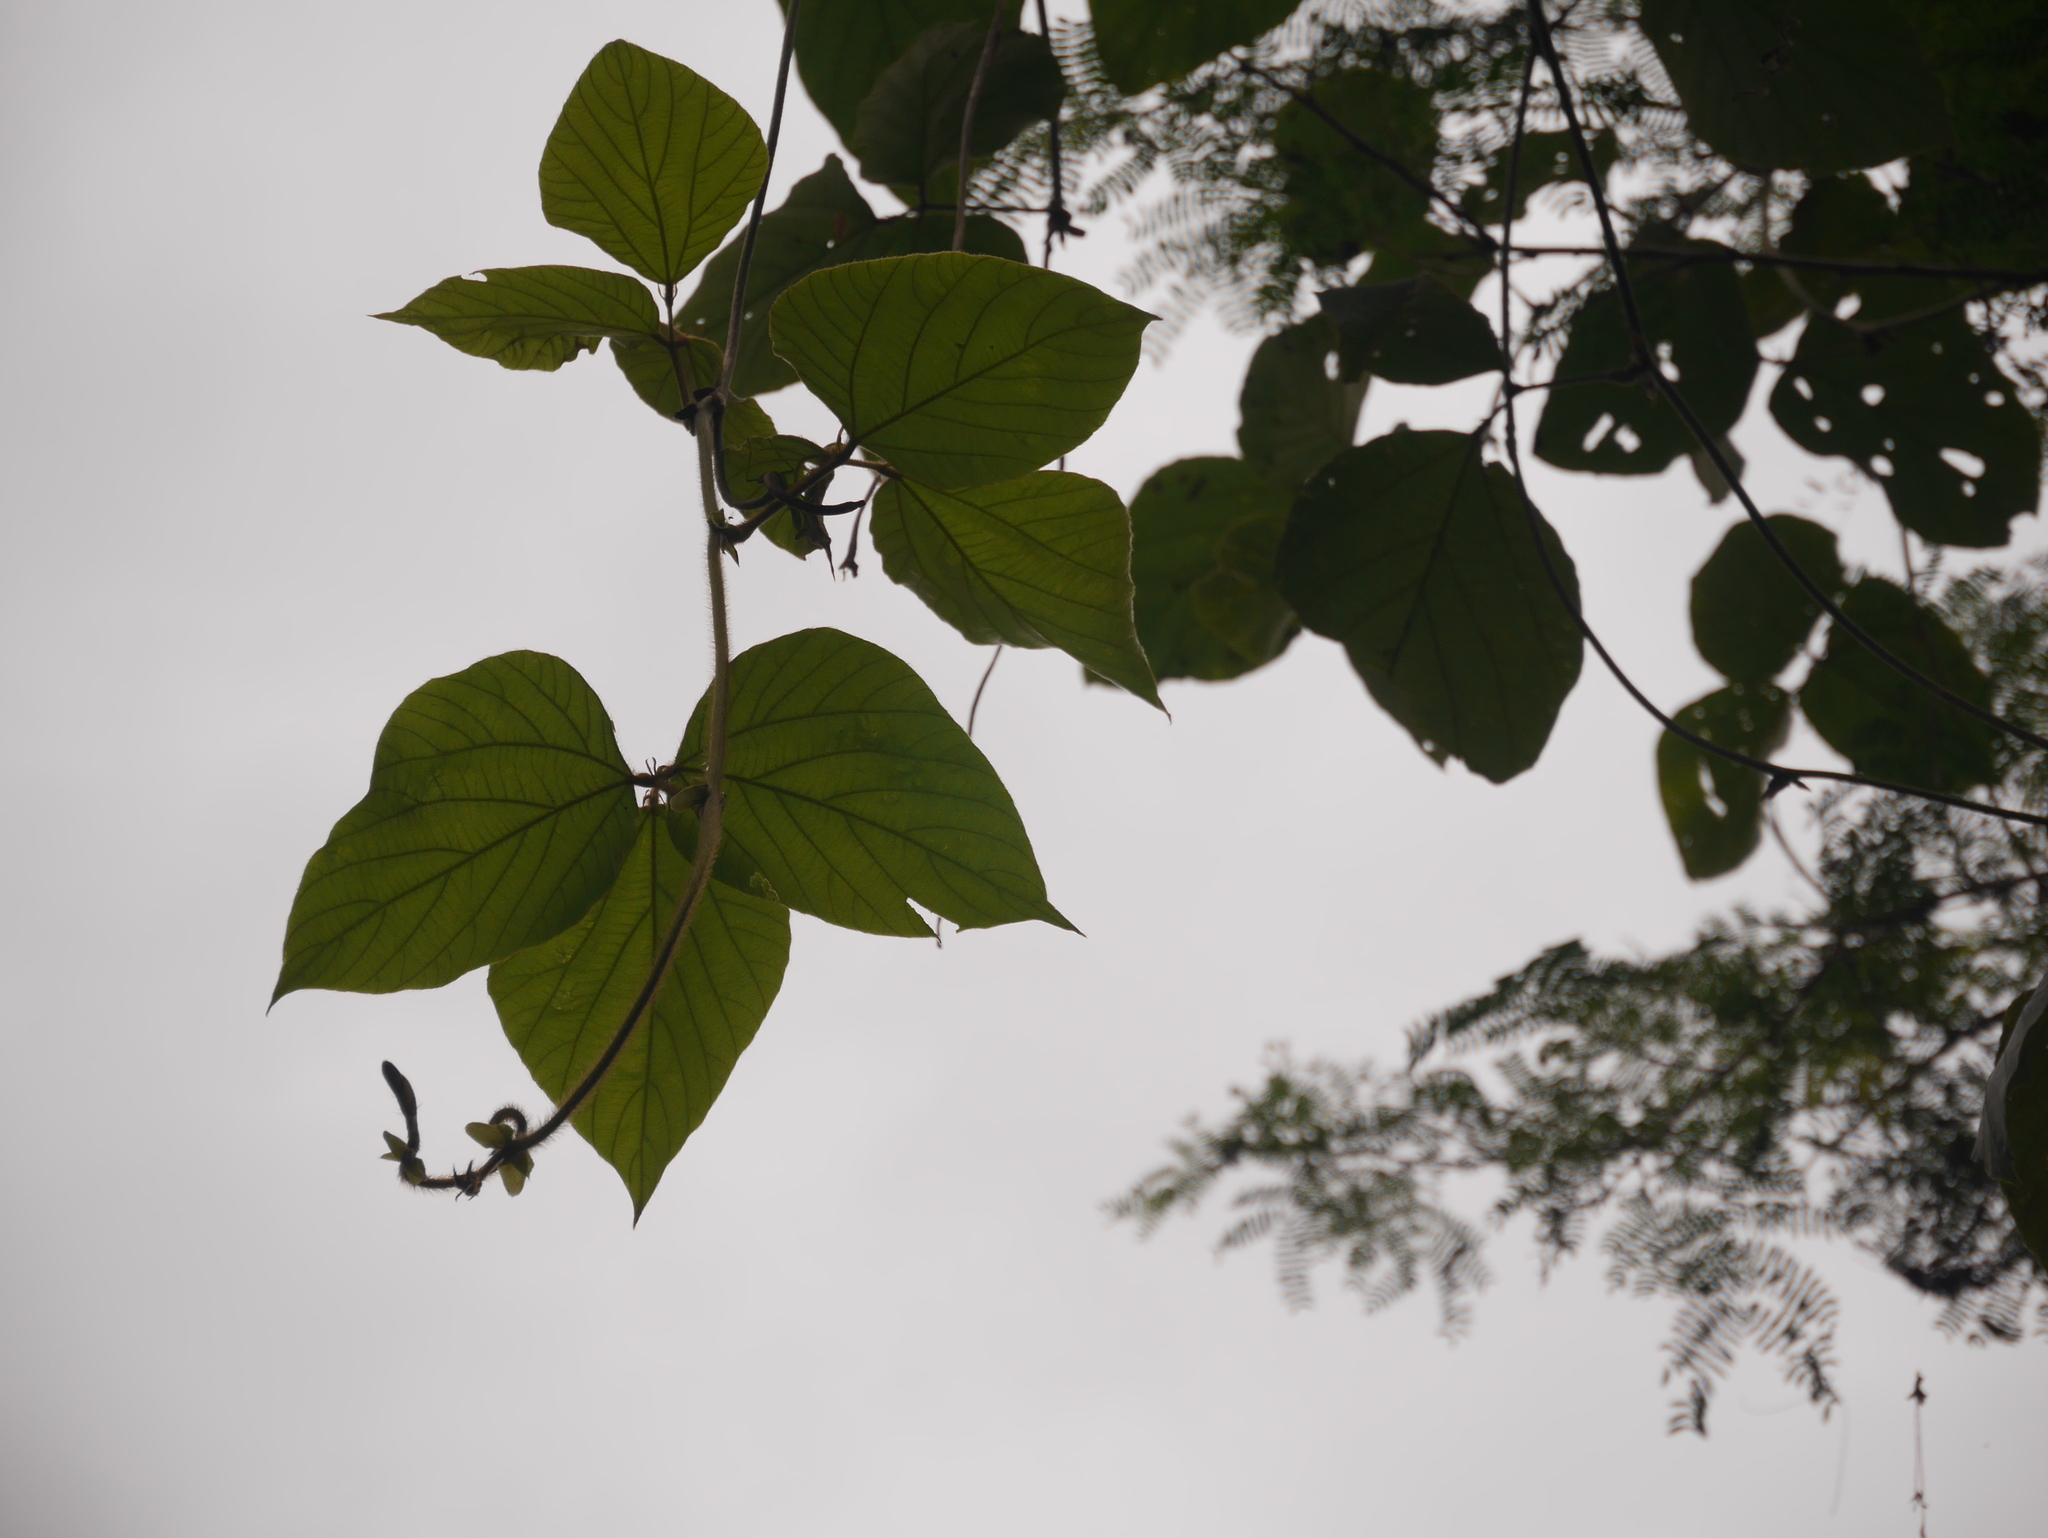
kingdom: Plantae
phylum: Tracheophyta
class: Magnoliopsida
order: Fabales
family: Fabaceae
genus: Pueraria
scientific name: Pueraria montana
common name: Kudzu
